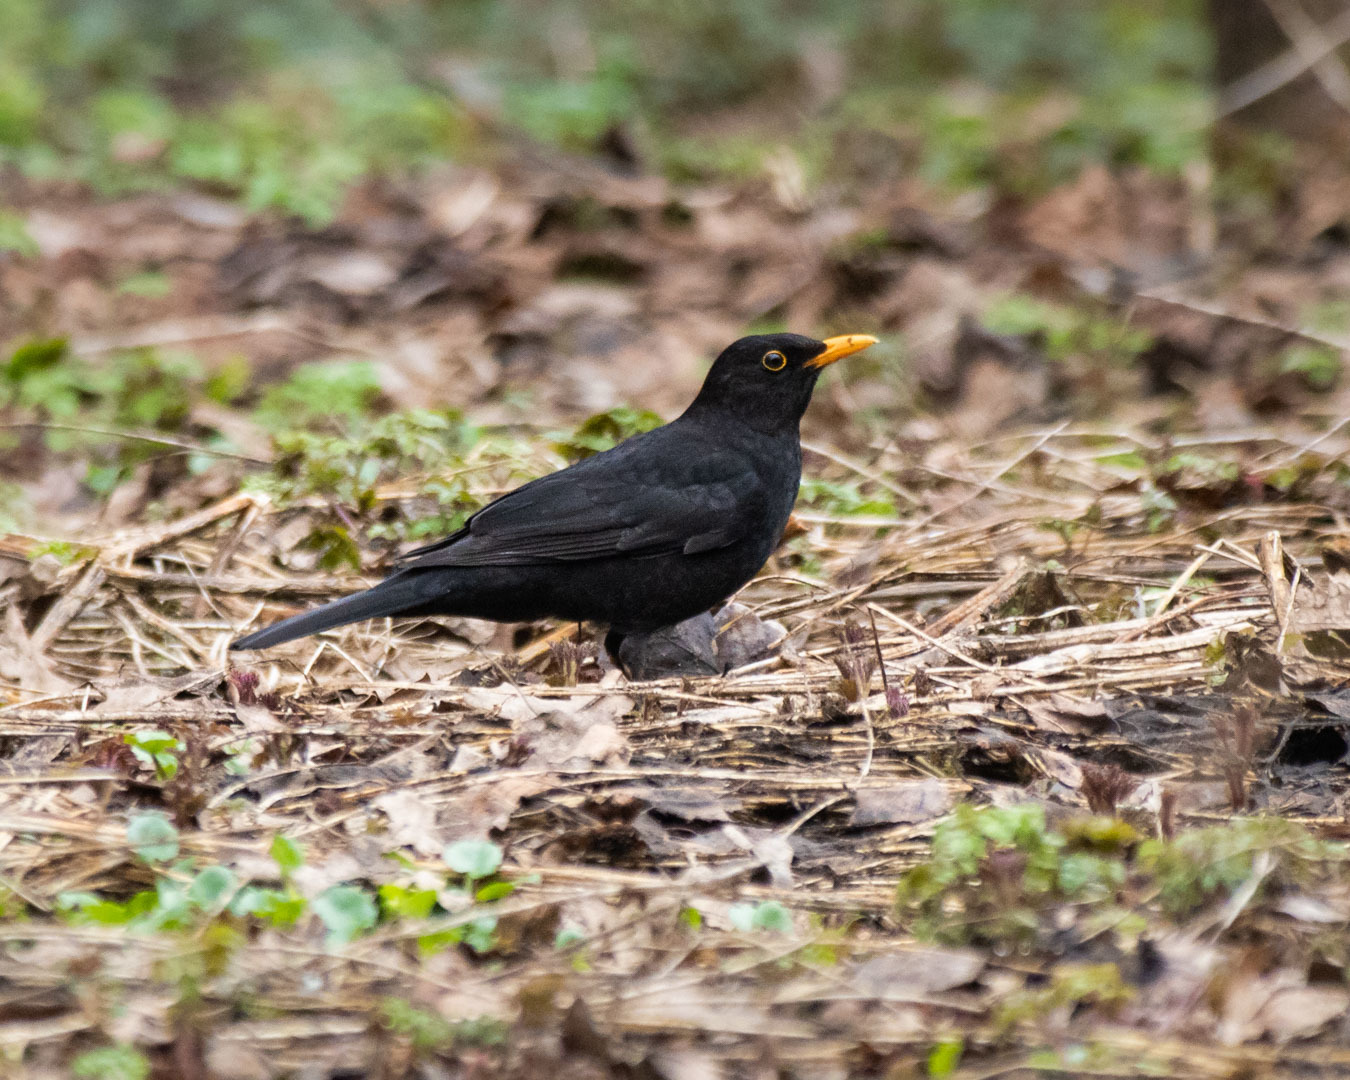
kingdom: Animalia
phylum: Chordata
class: Aves
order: Passeriformes
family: Turdidae
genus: Turdus
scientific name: Turdus merula
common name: Common blackbird
